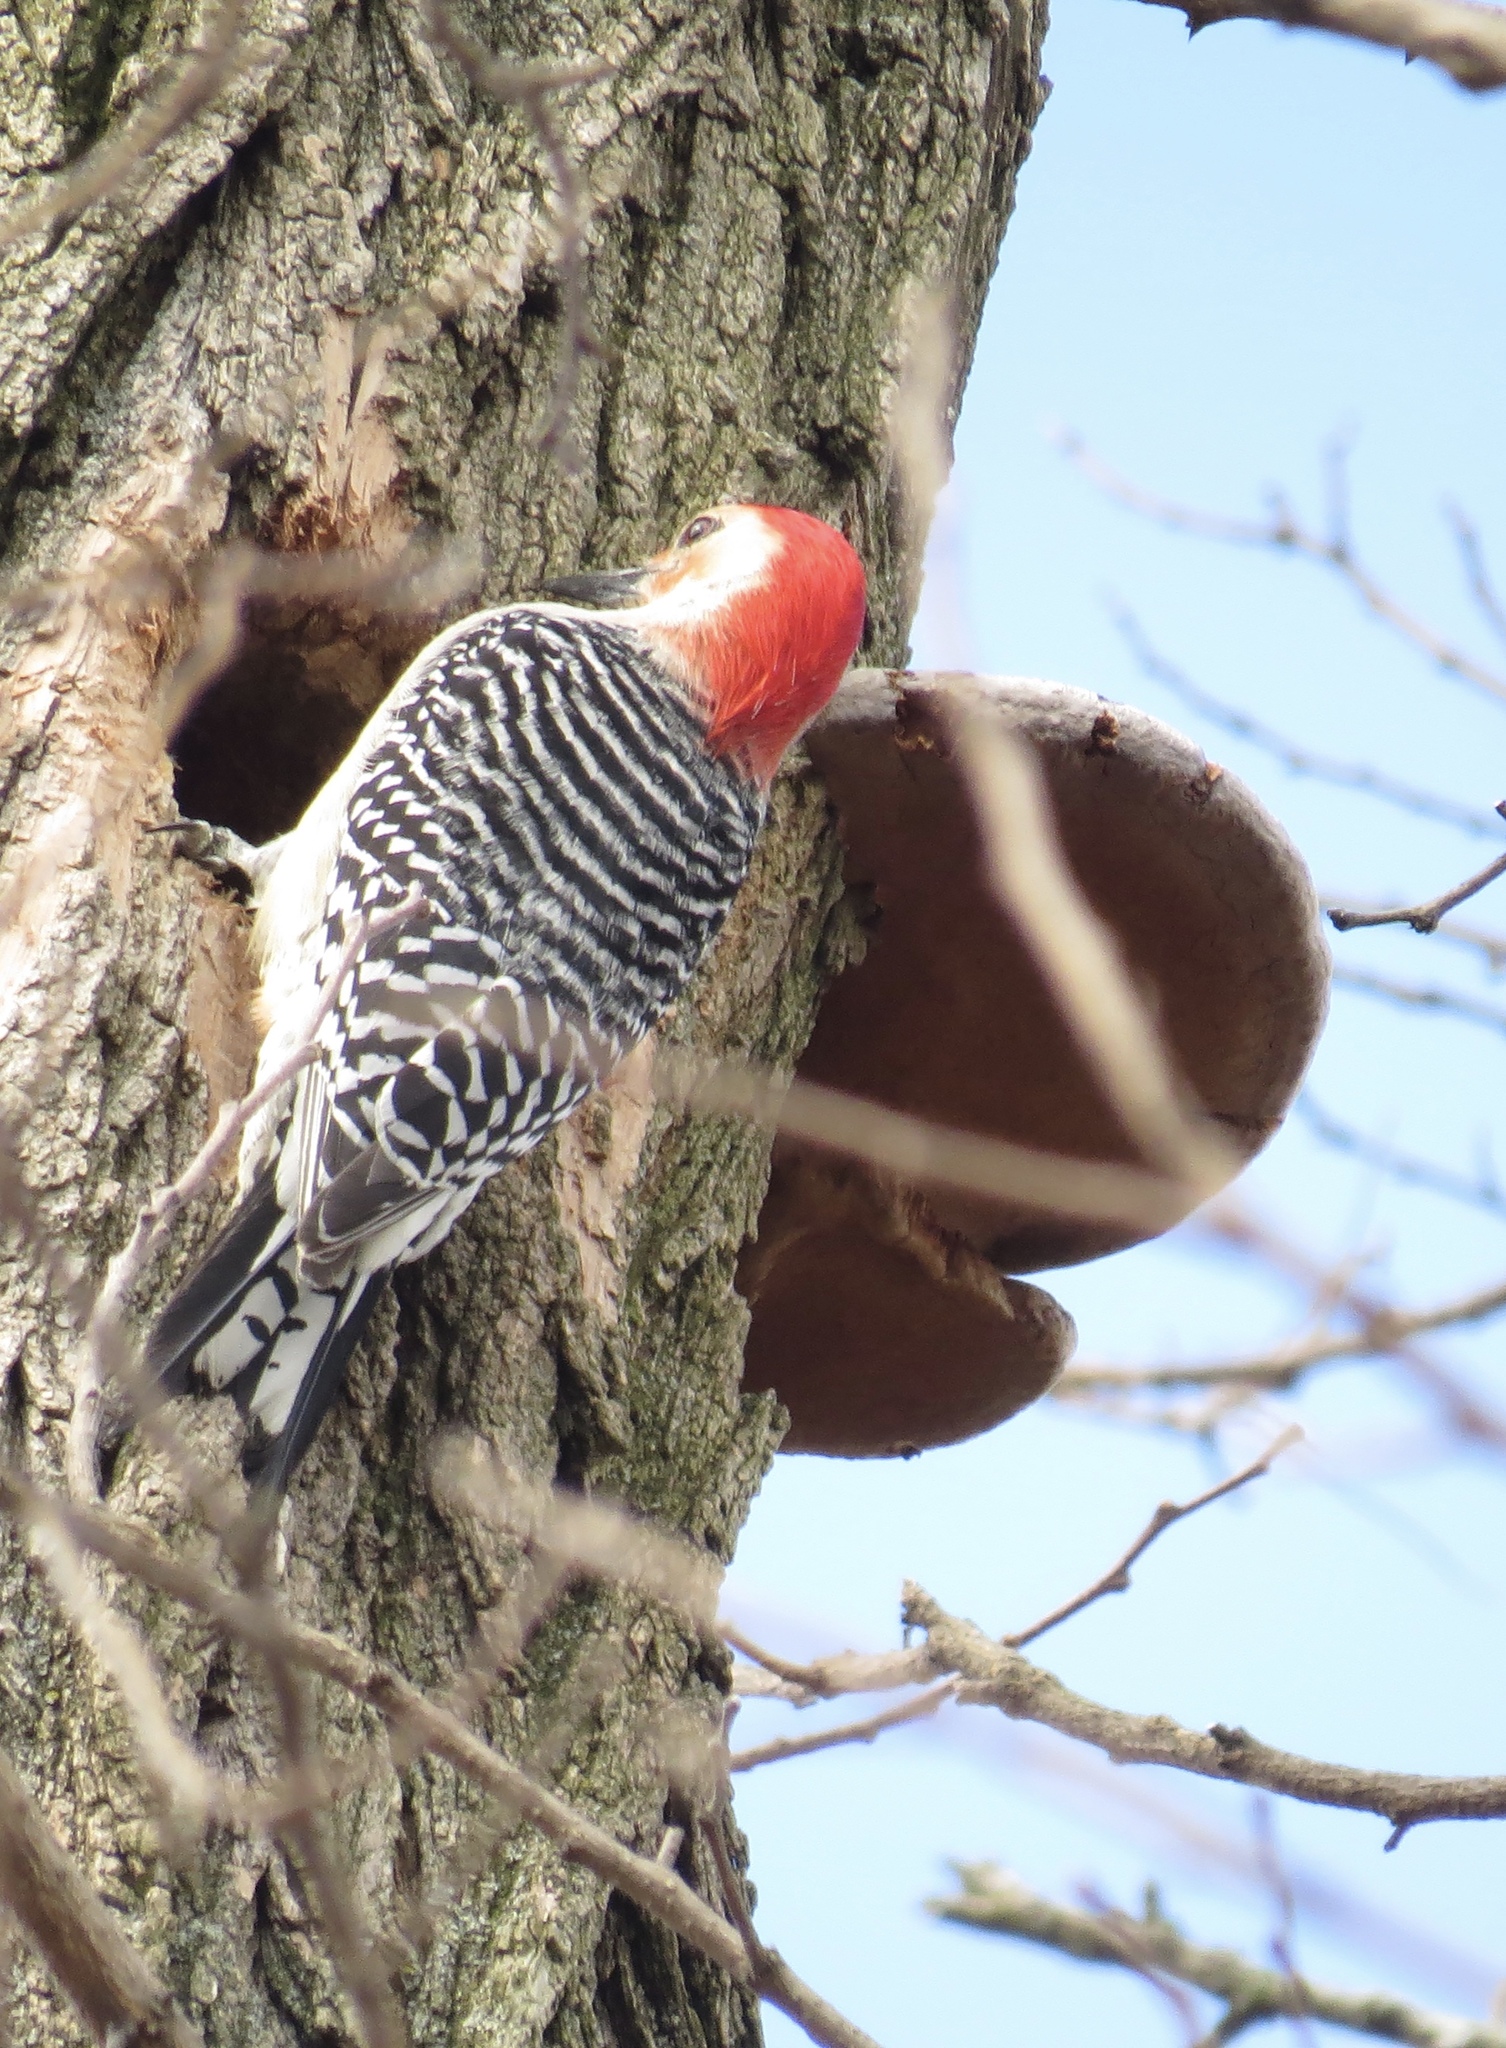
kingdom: Animalia
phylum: Chordata
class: Aves
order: Piciformes
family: Picidae
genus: Melanerpes
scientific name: Melanerpes carolinus
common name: Red-bellied woodpecker
